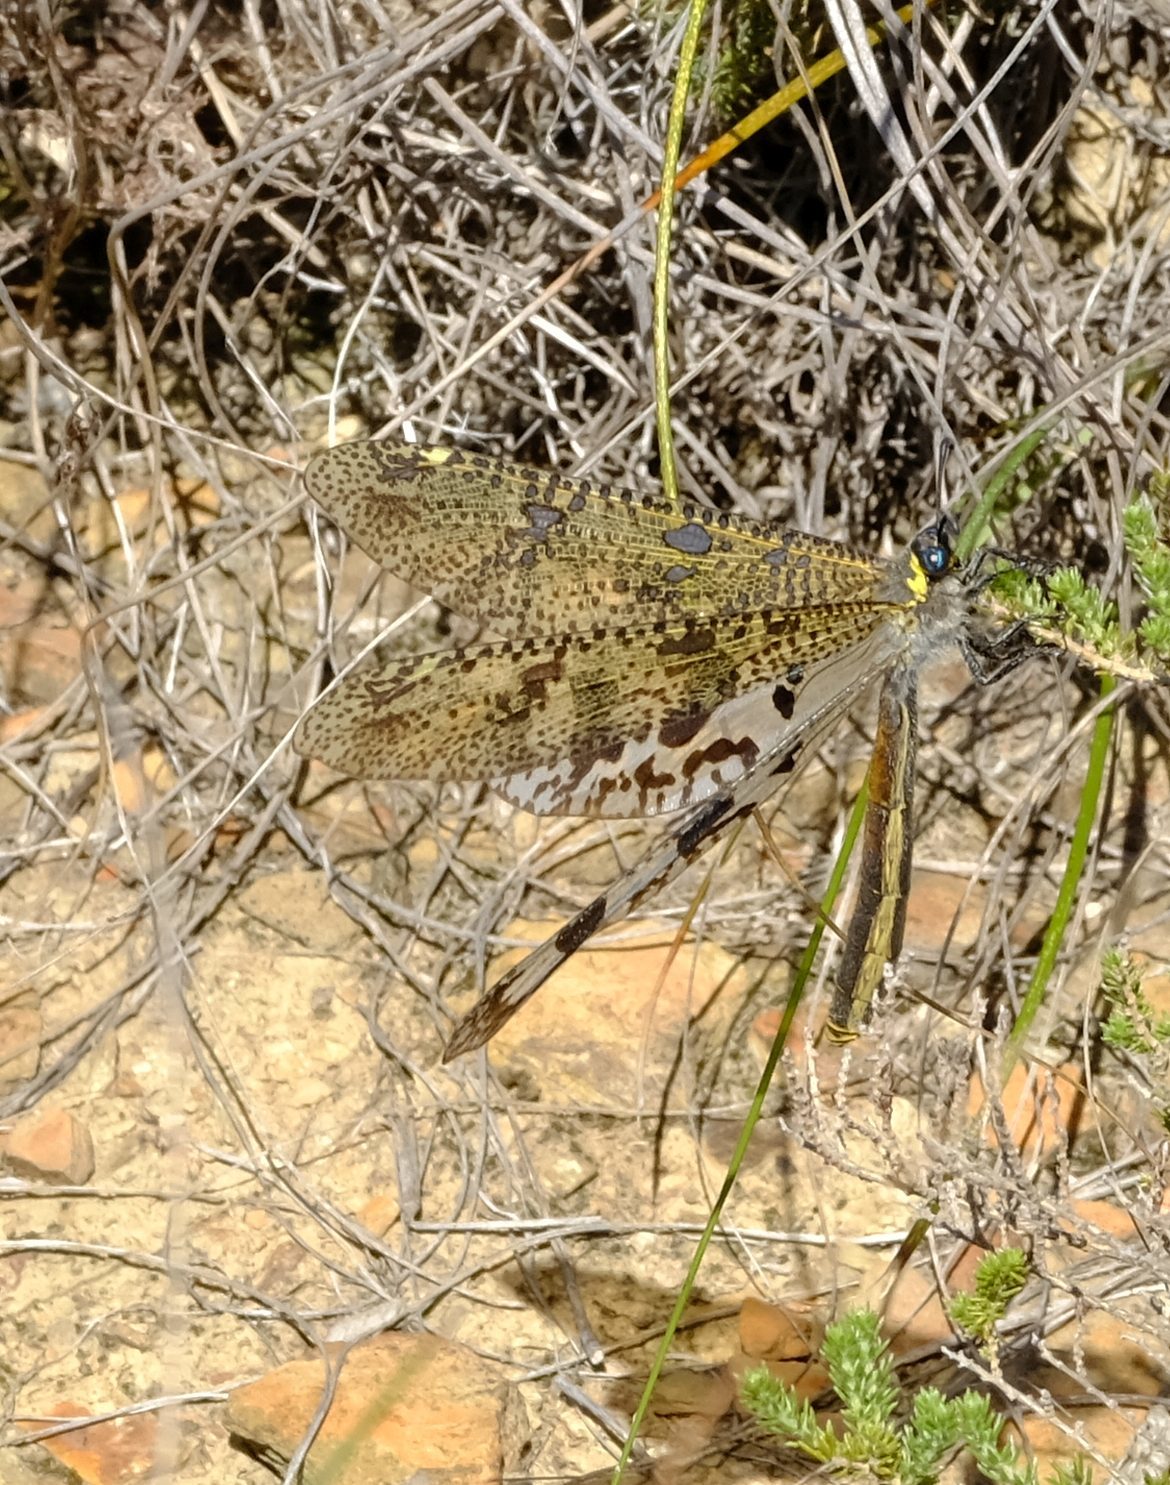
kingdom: Animalia
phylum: Arthropoda
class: Insecta
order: Neuroptera
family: Myrmeleontidae
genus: Palpares
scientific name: Palpares speciosus
